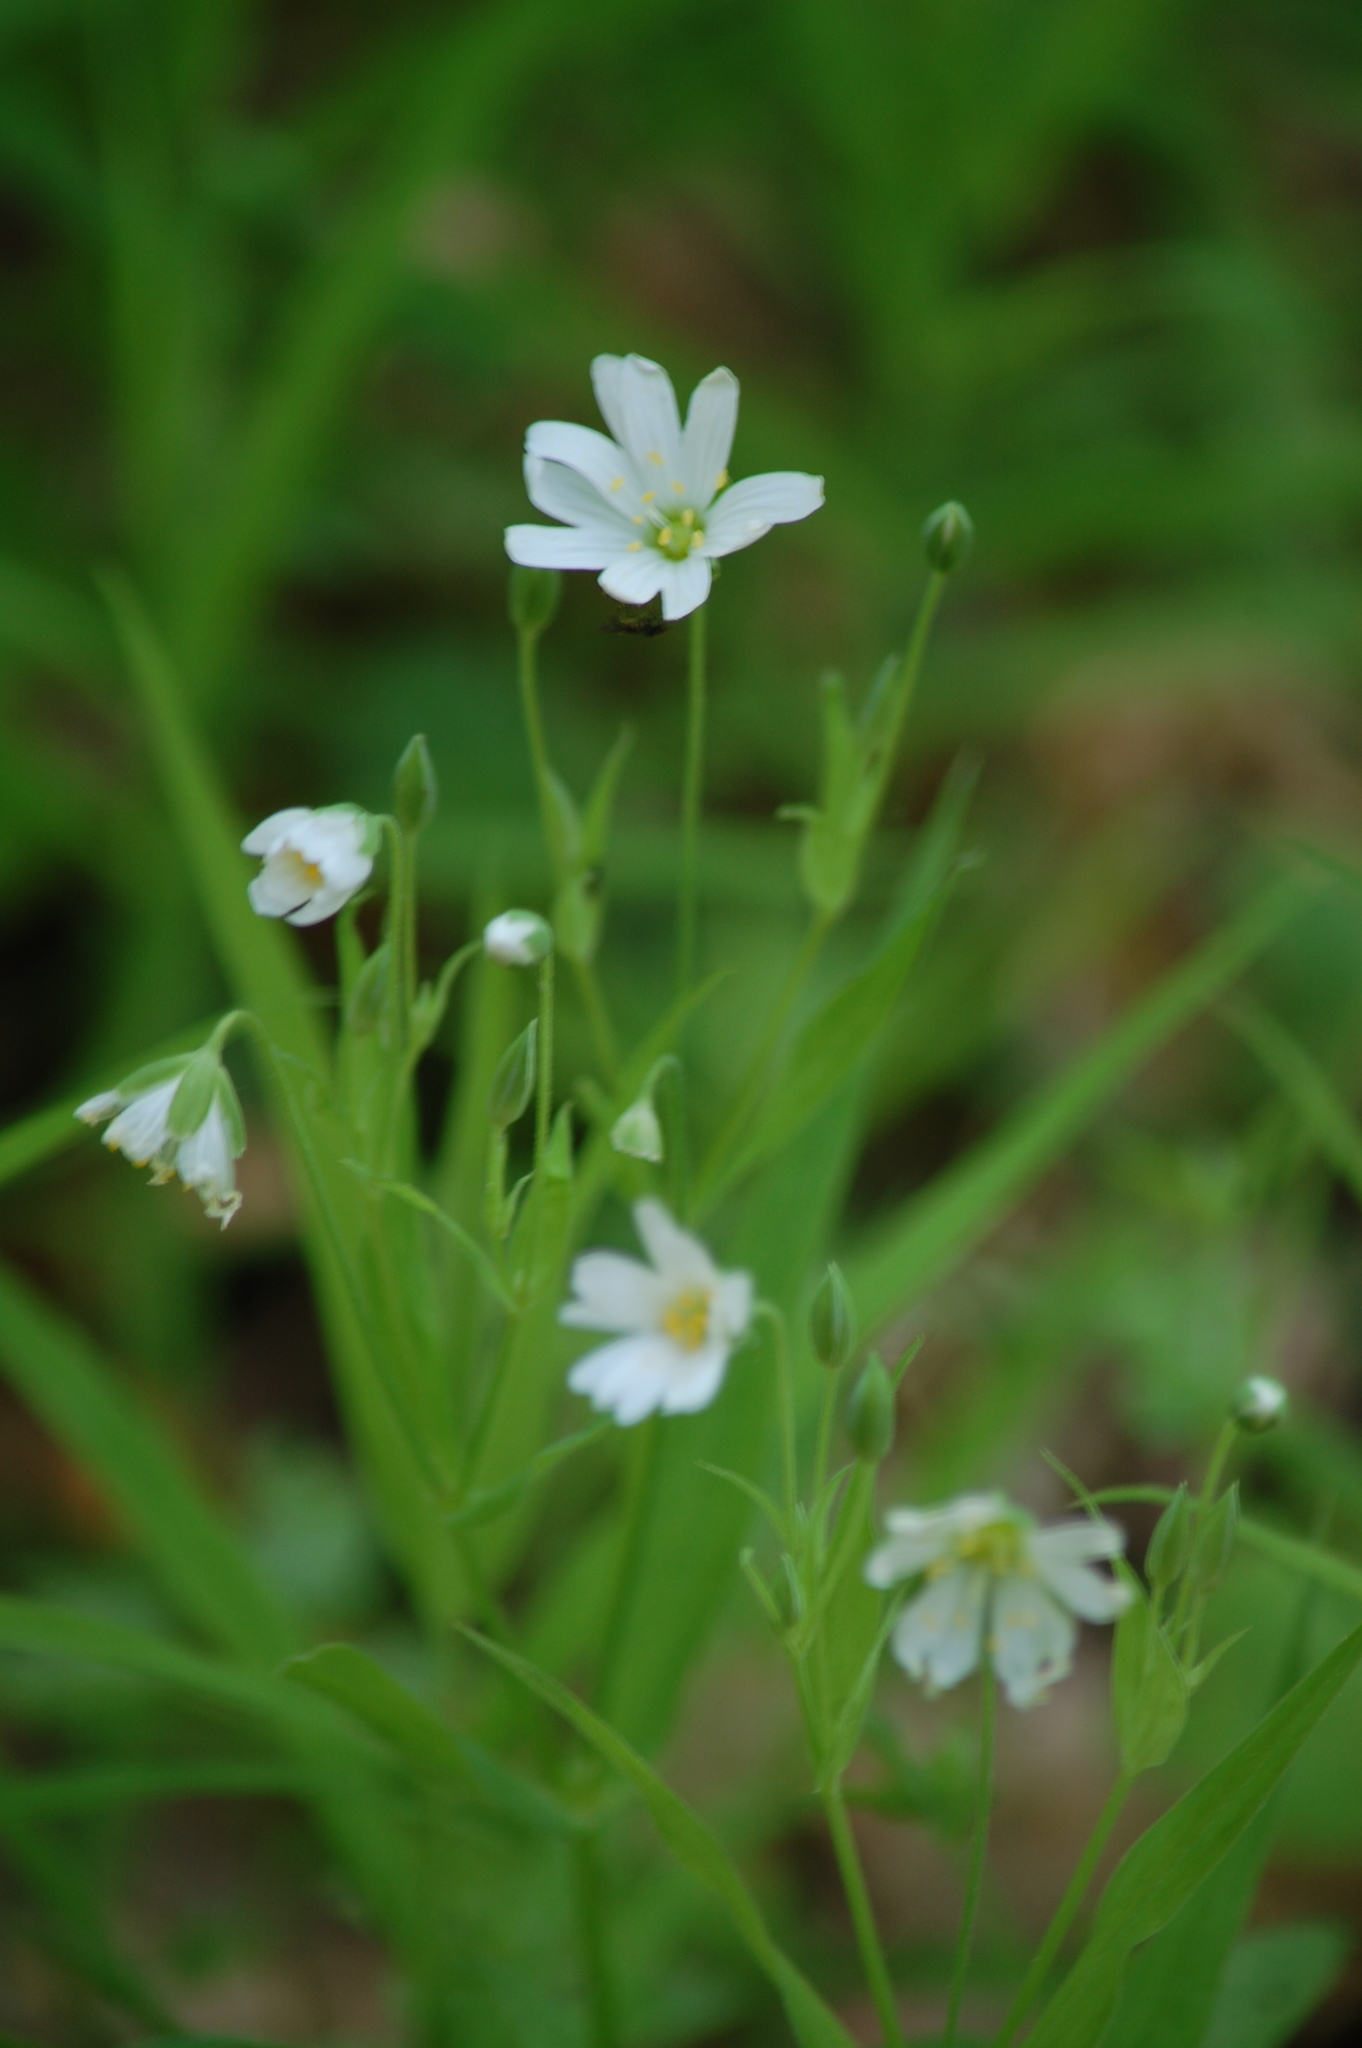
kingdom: Plantae
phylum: Tracheophyta
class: Magnoliopsida
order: Caryophyllales
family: Caryophyllaceae
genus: Rabelera
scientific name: Rabelera holostea
